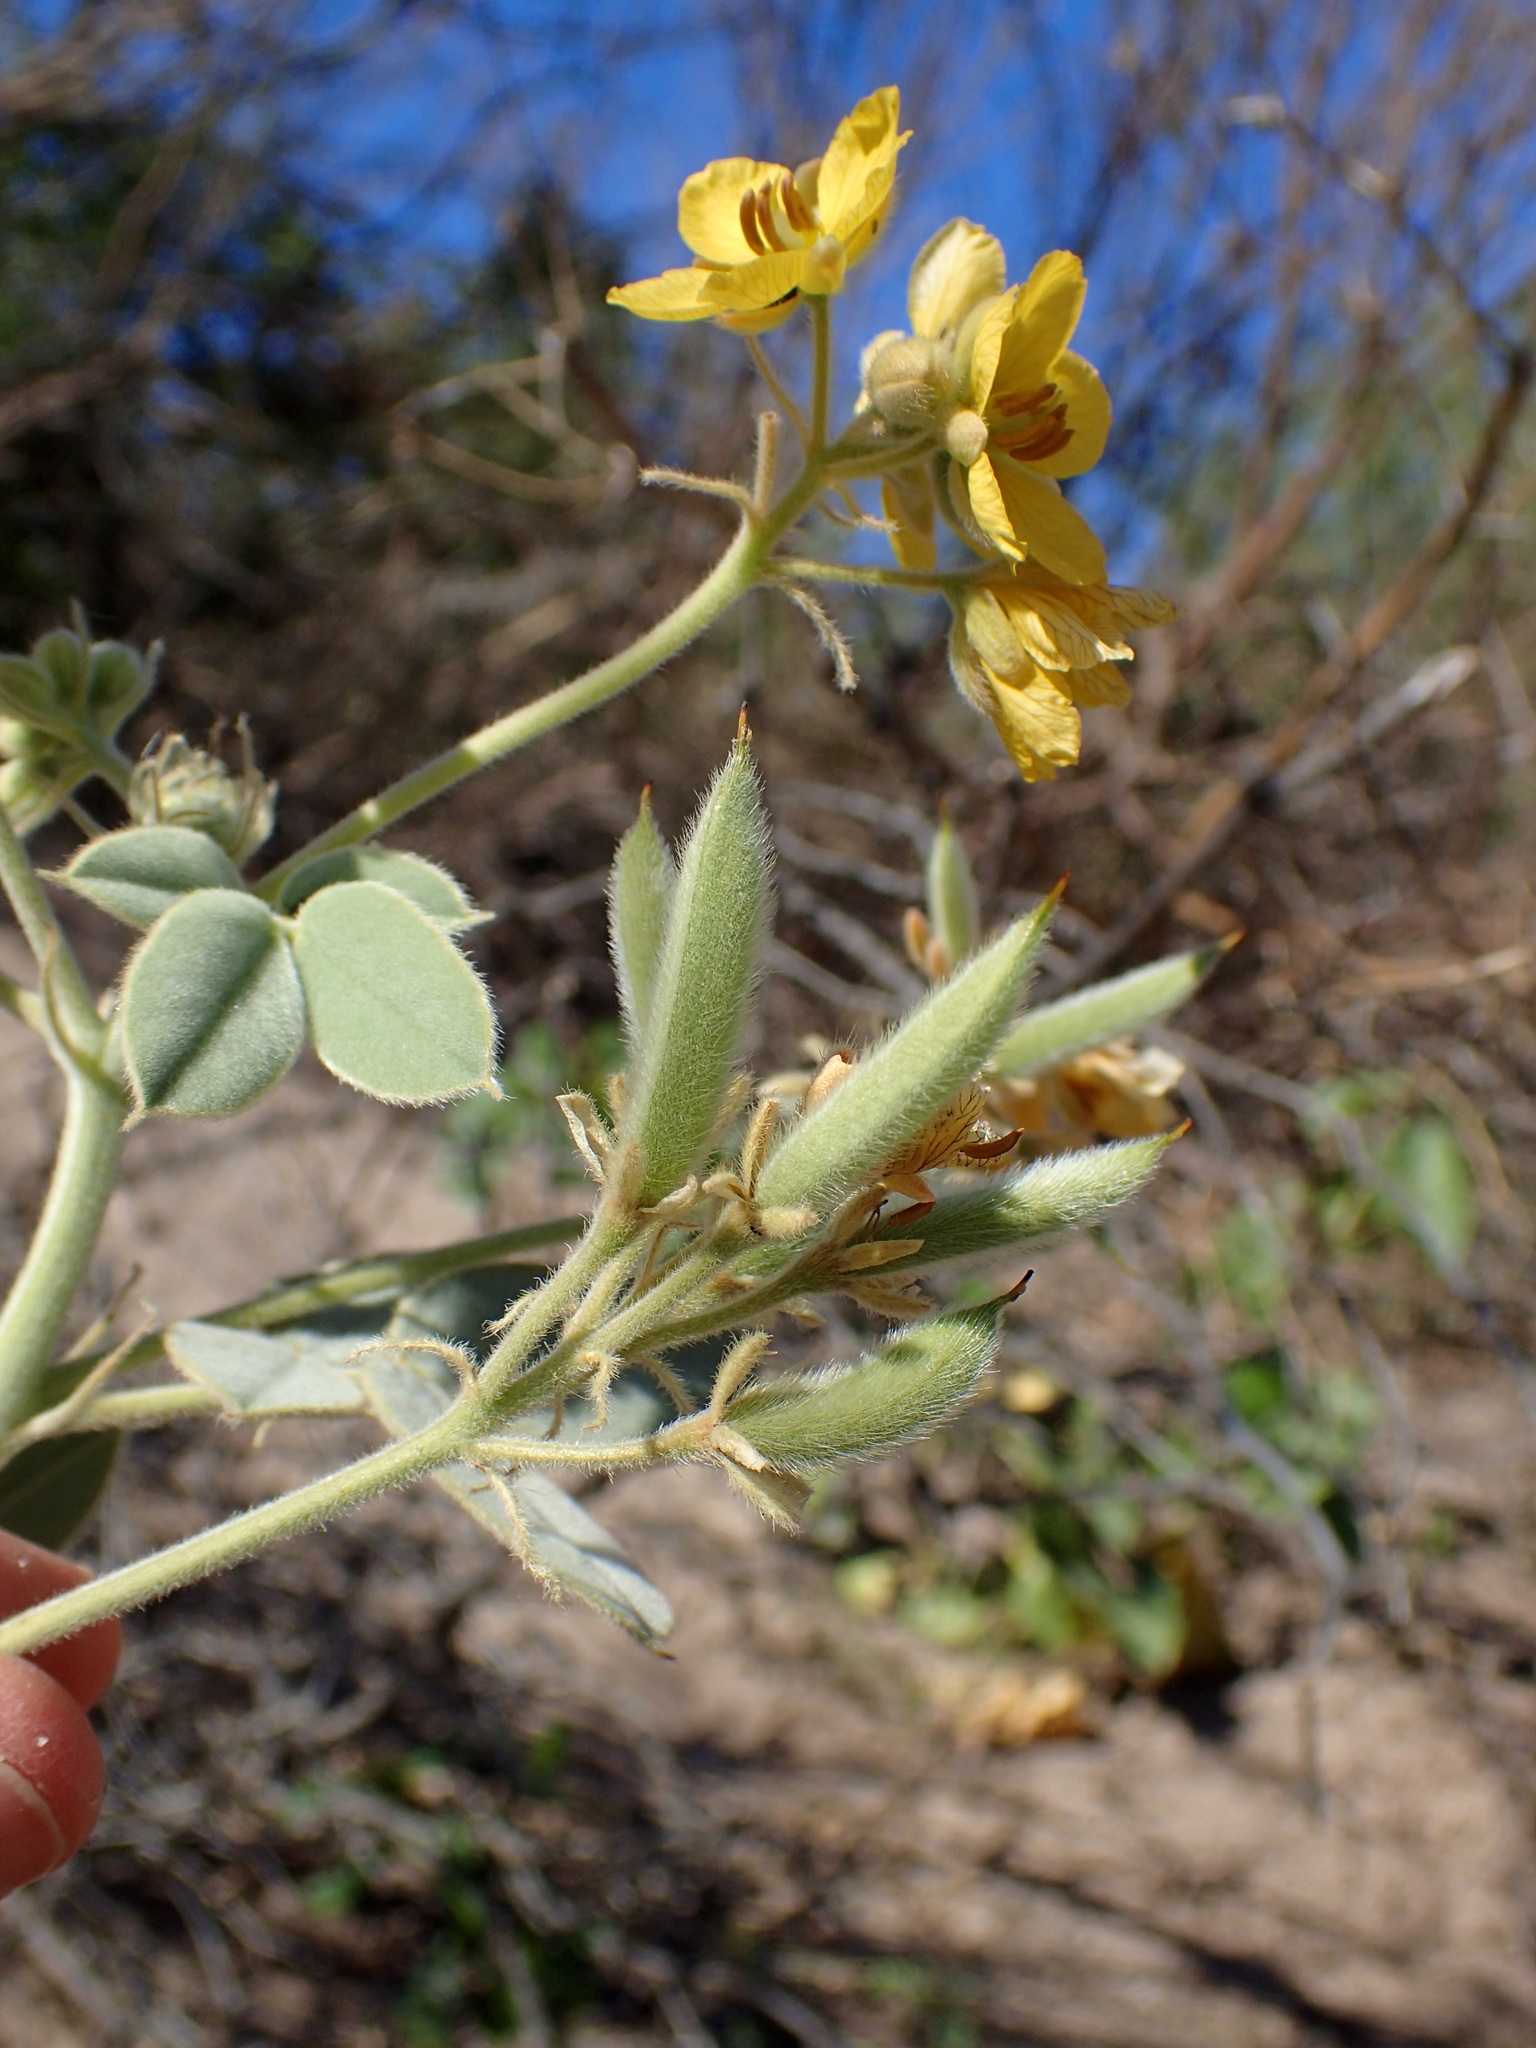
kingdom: Plantae
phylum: Tracheophyta
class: Magnoliopsida
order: Fabales
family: Fabaceae
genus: Senna
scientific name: Senna confinis
